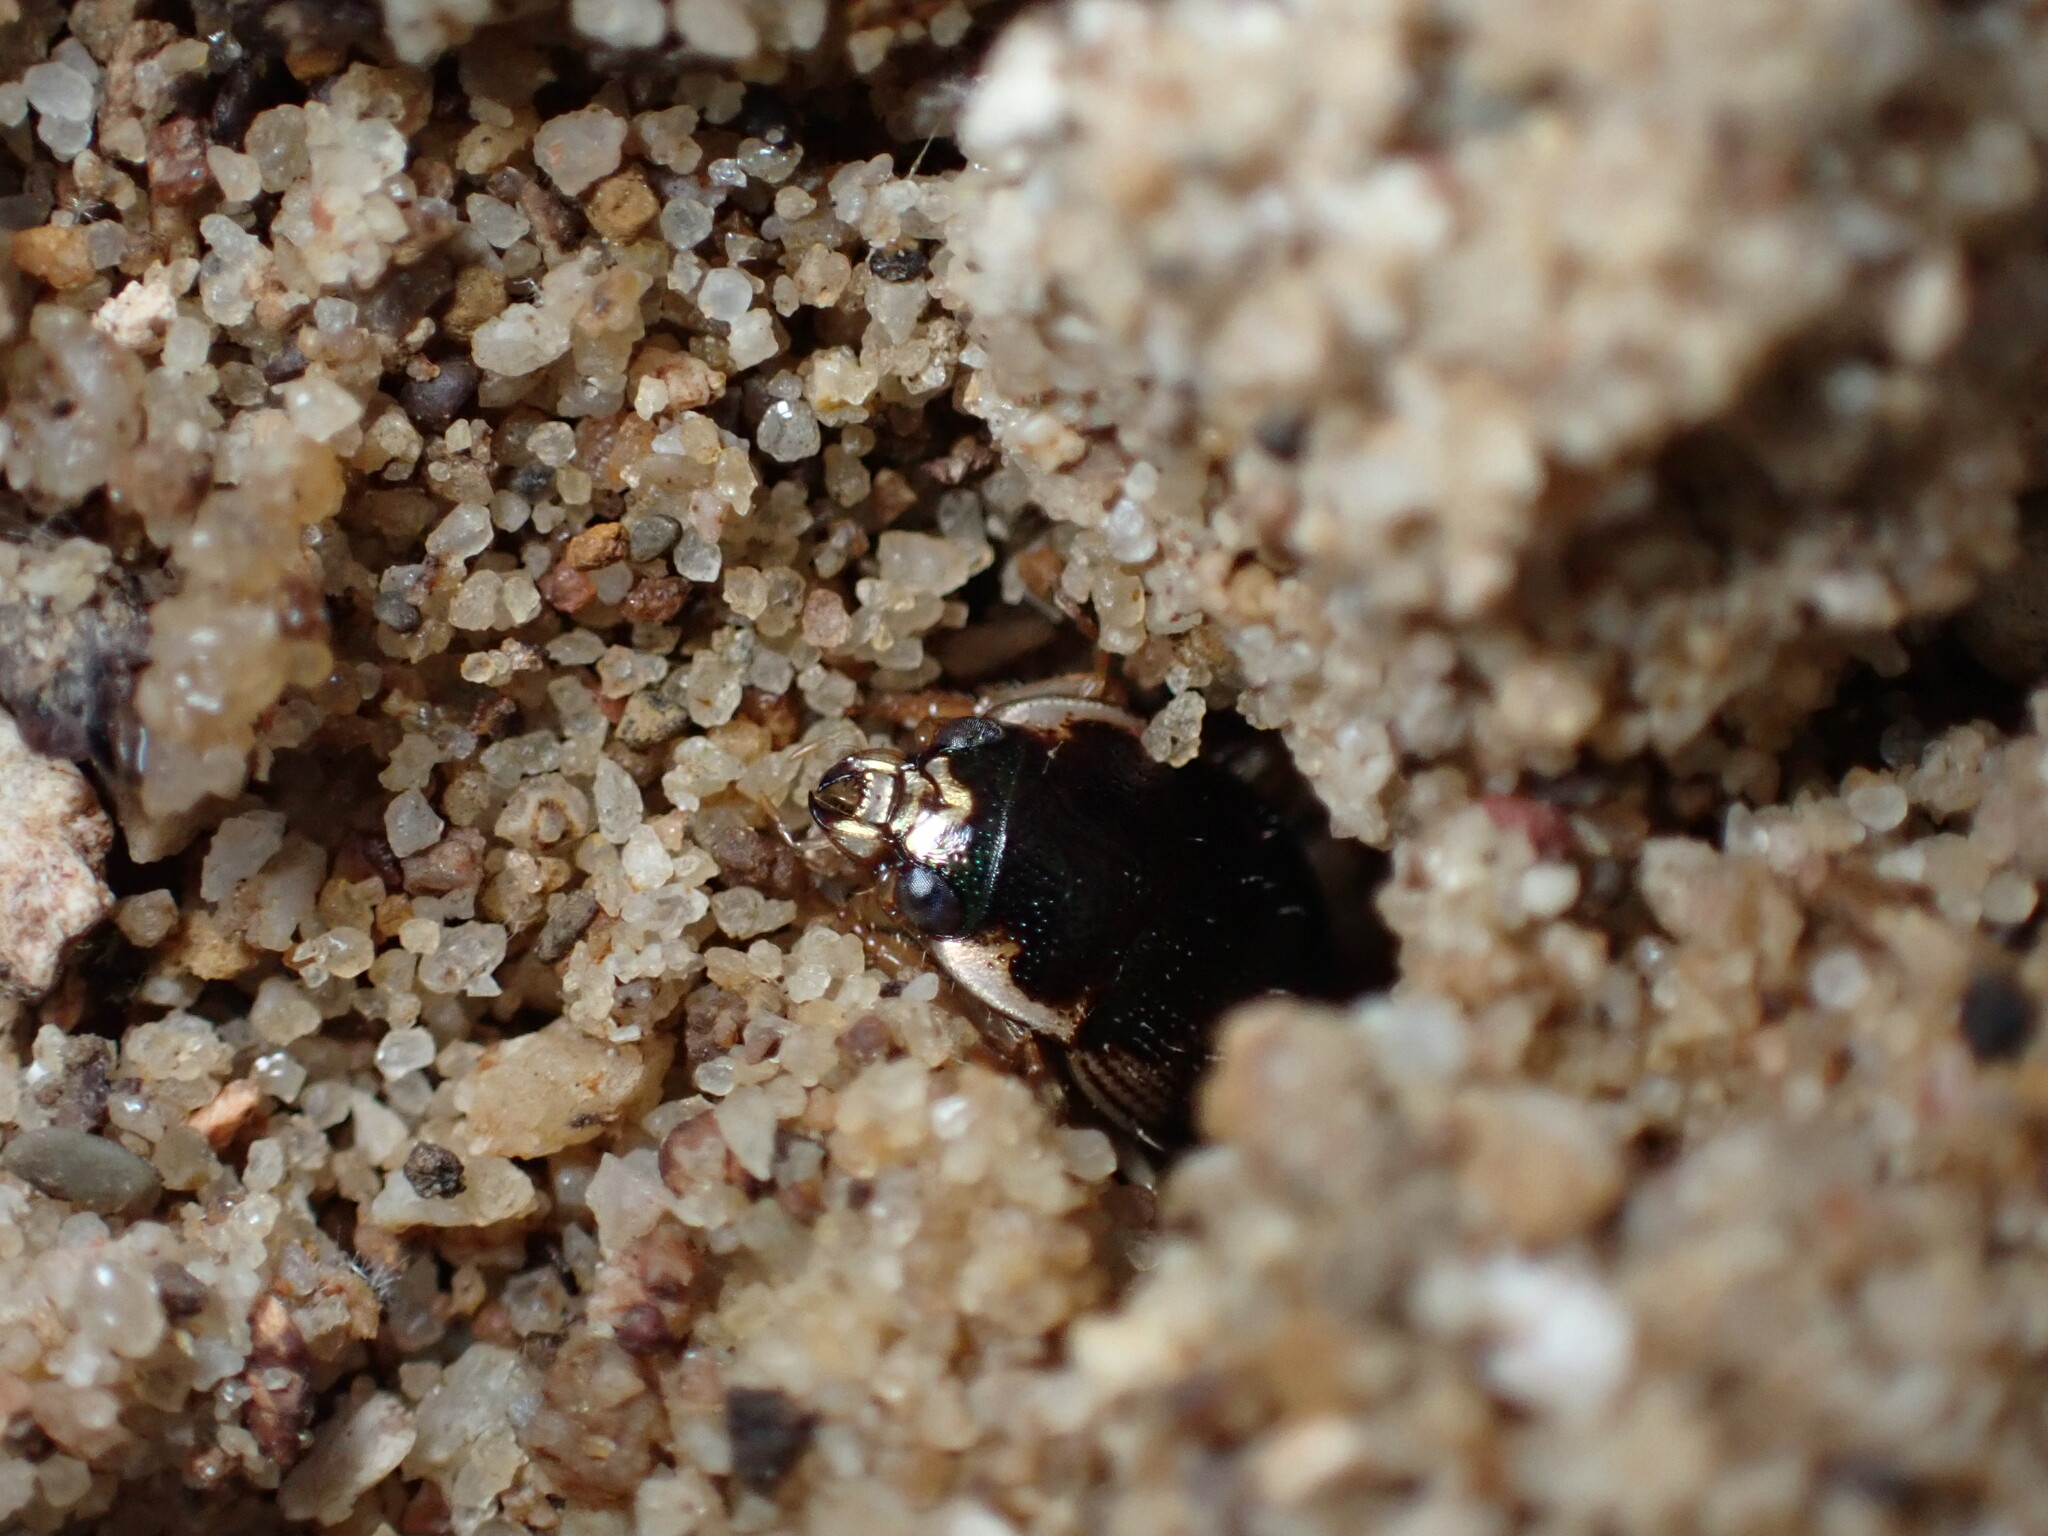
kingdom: Animalia
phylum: Arthropoda
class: Insecta
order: Coleoptera
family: Carabidae
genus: Omophron
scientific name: Omophron americanum
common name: American round sand beetle
